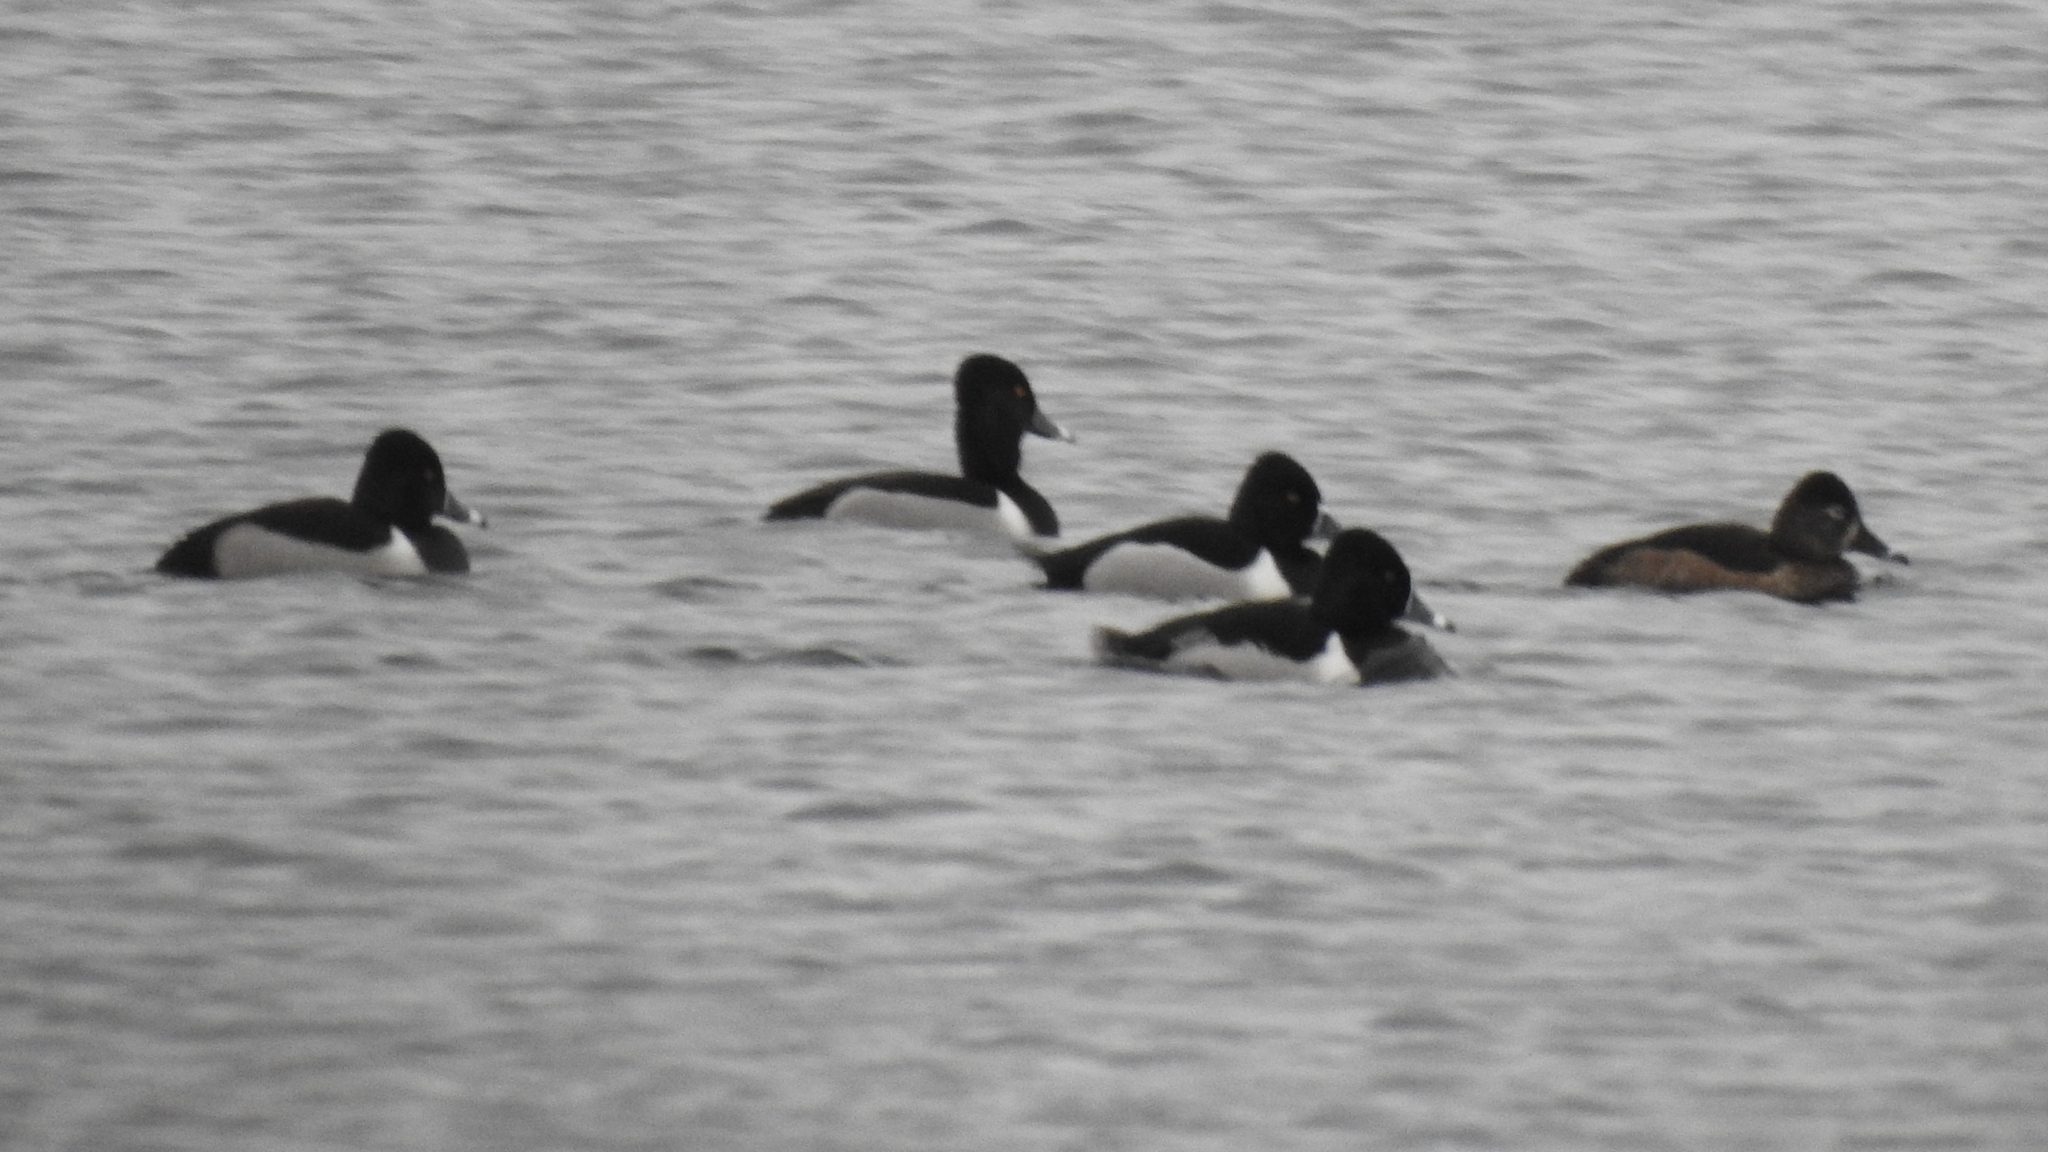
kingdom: Animalia
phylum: Chordata
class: Aves
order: Anseriformes
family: Anatidae
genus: Aythya
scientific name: Aythya collaris
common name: Ring-necked duck
